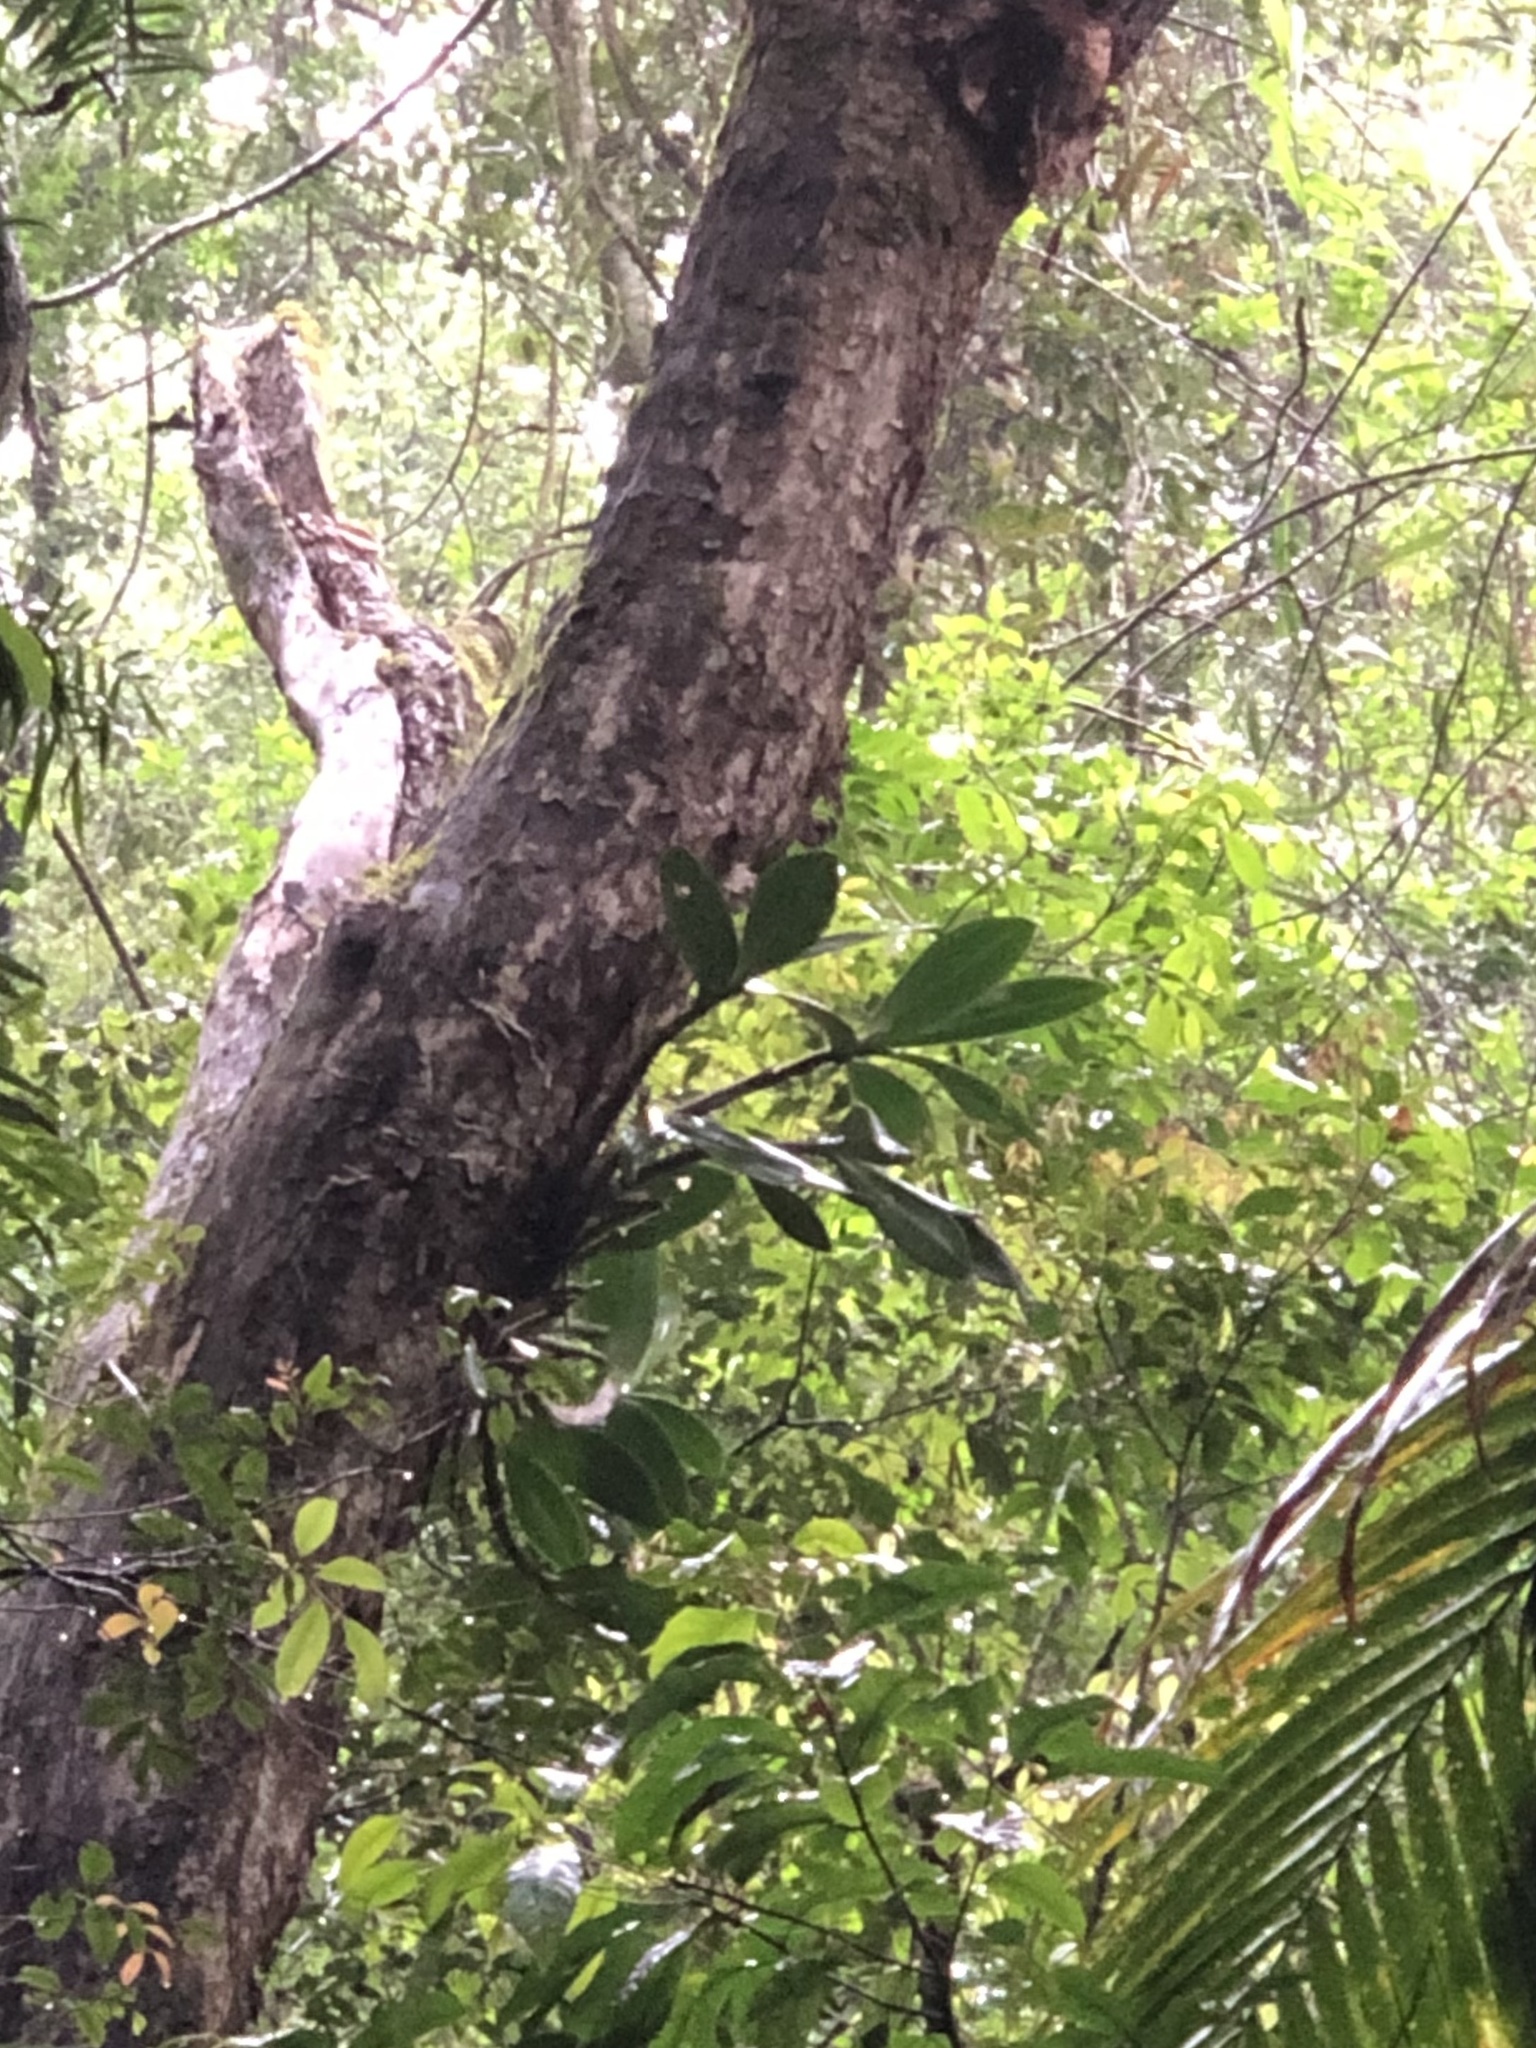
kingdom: Plantae
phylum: Tracheophyta
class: Liliopsida
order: Asparagales
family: Orchidaceae
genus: Dendrobium
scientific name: Dendrobium speciosum
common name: Rock-lily
